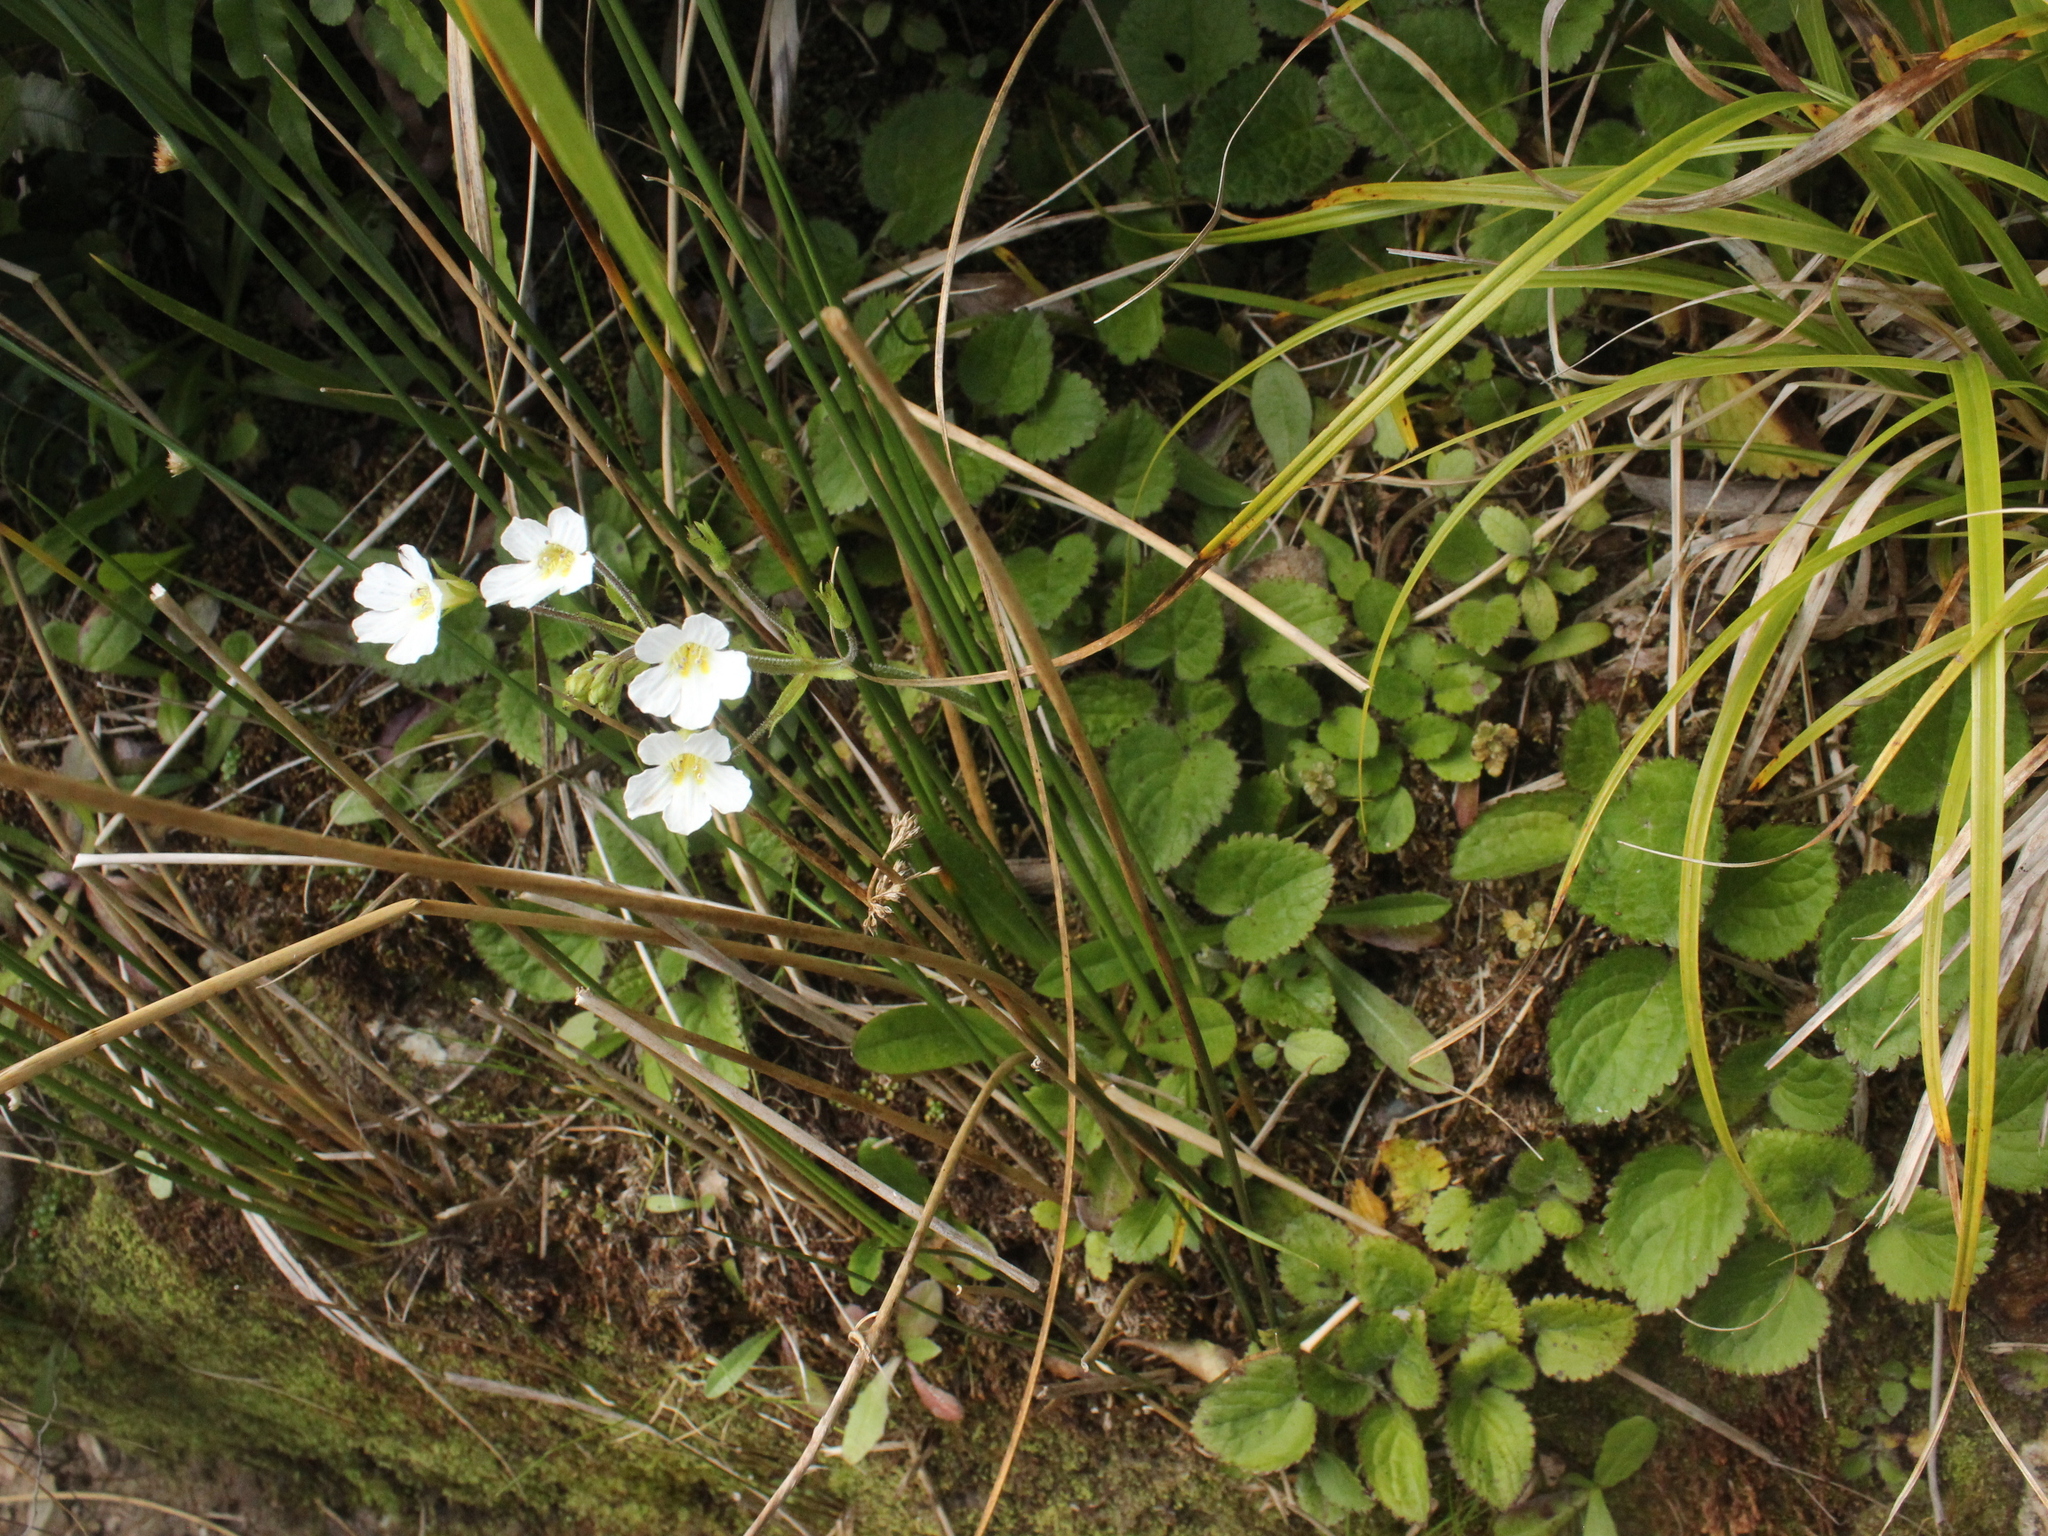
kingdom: Plantae
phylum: Tracheophyta
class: Magnoliopsida
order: Lamiales
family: Plantaginaceae
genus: Ourisia
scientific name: Ourisia macrophylla
